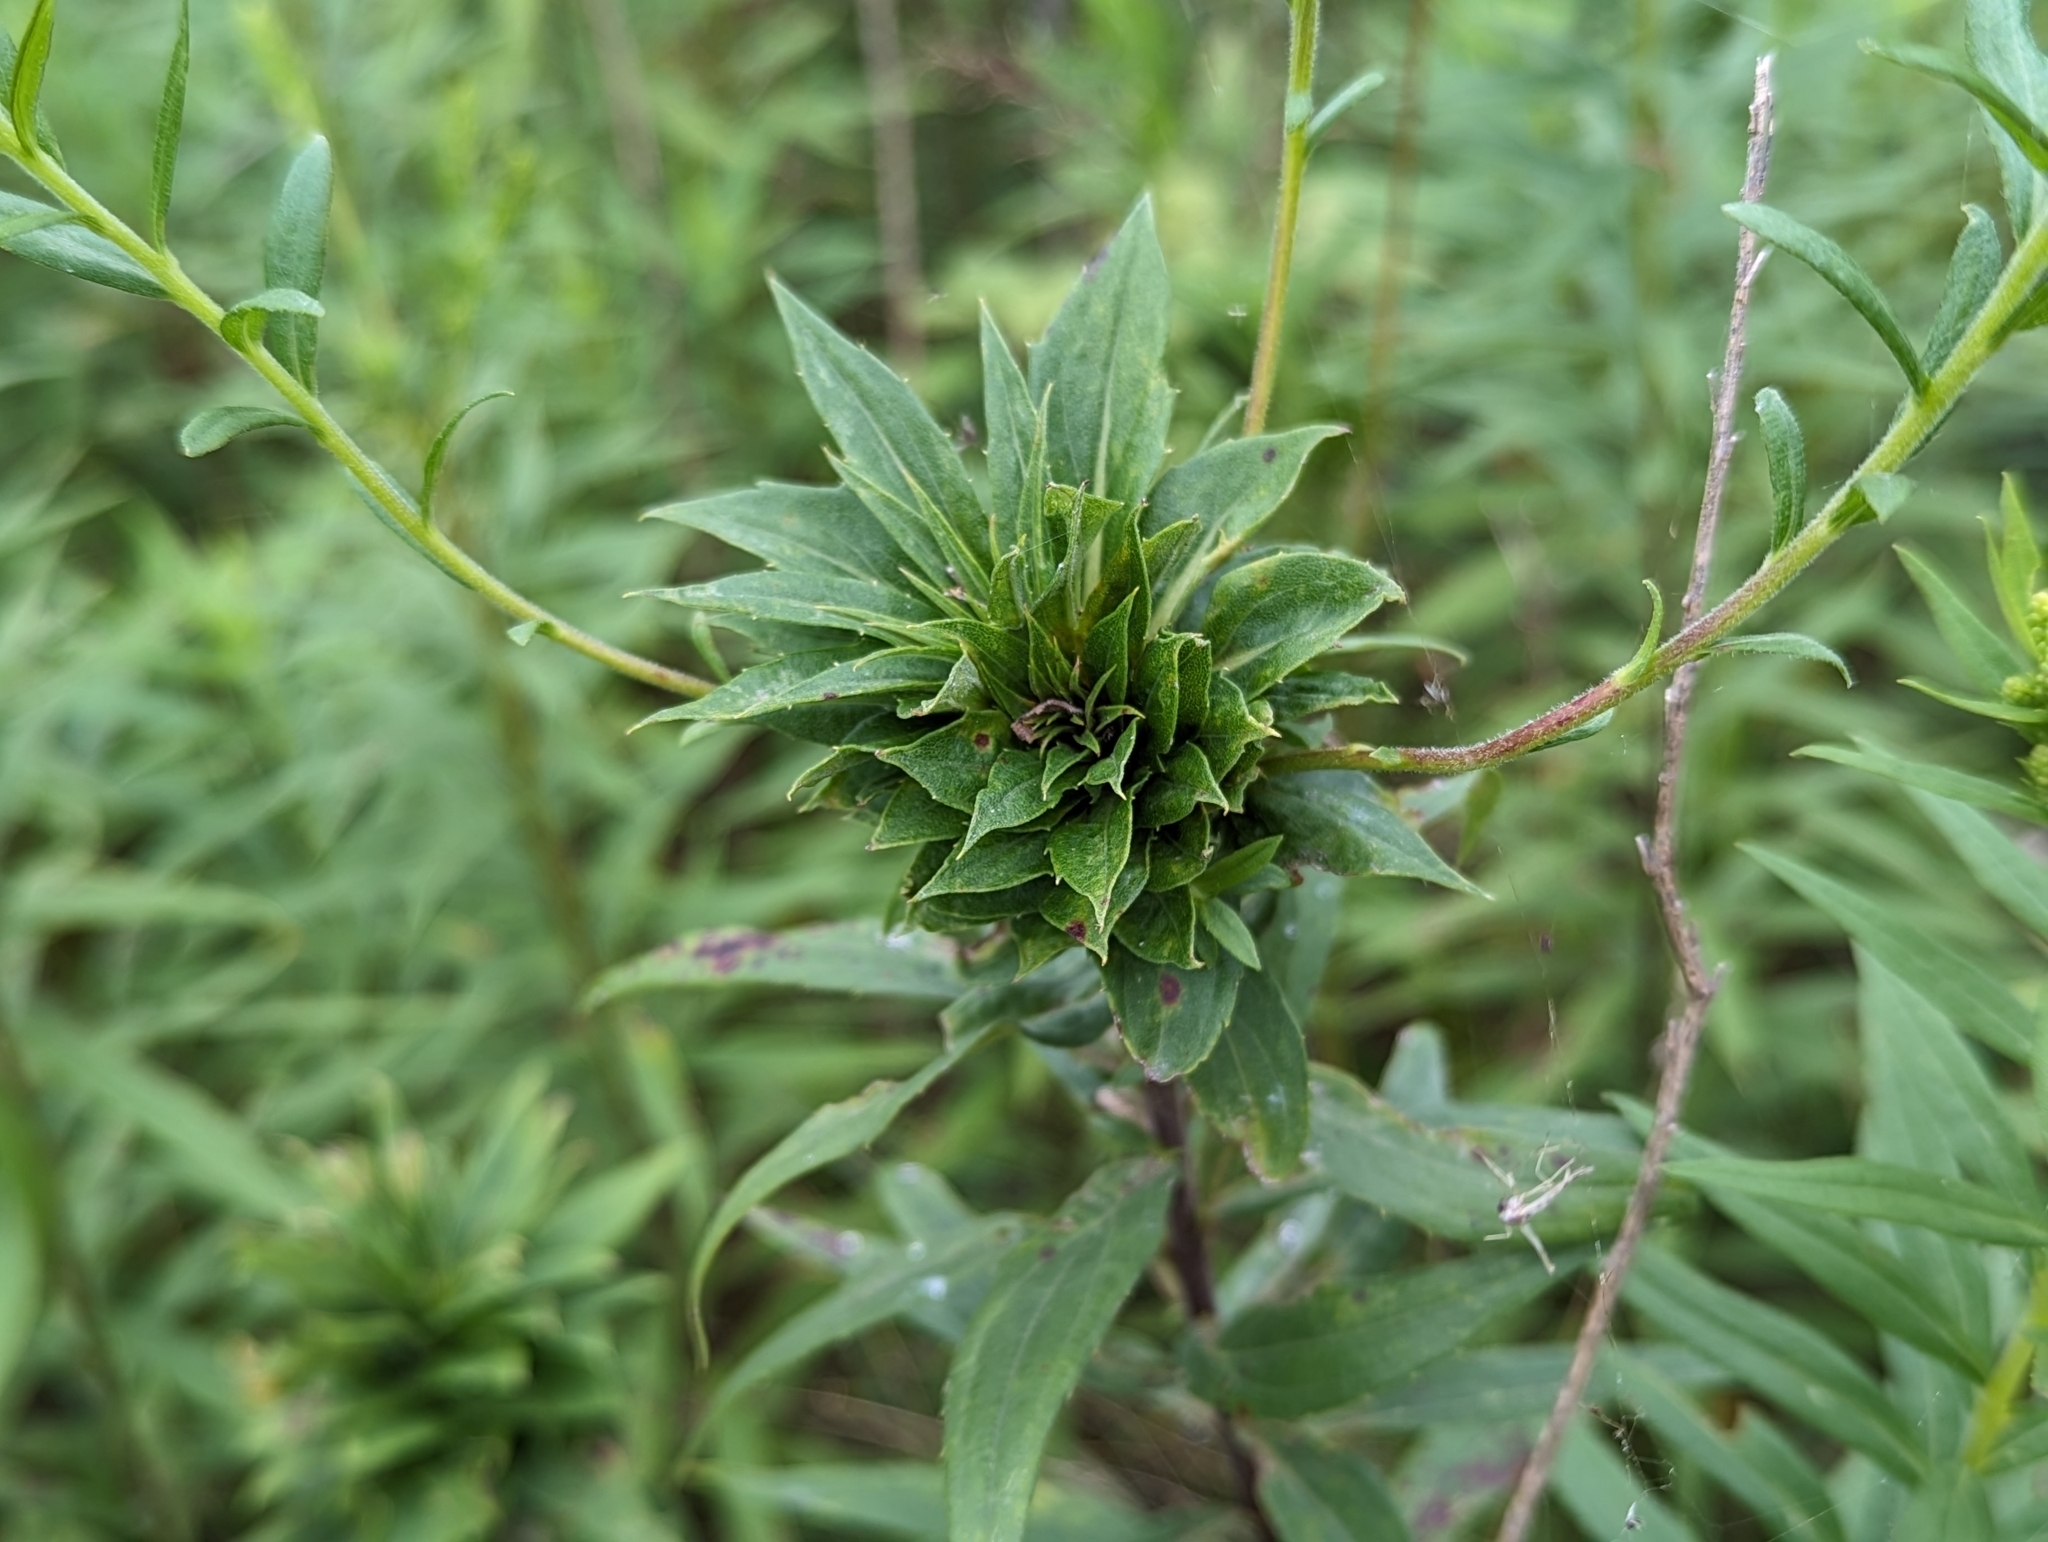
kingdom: Animalia
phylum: Arthropoda
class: Insecta
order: Diptera
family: Cecidomyiidae
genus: Rhopalomyia
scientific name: Rhopalomyia solidaginis
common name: Goldenrod bunch gall midge
